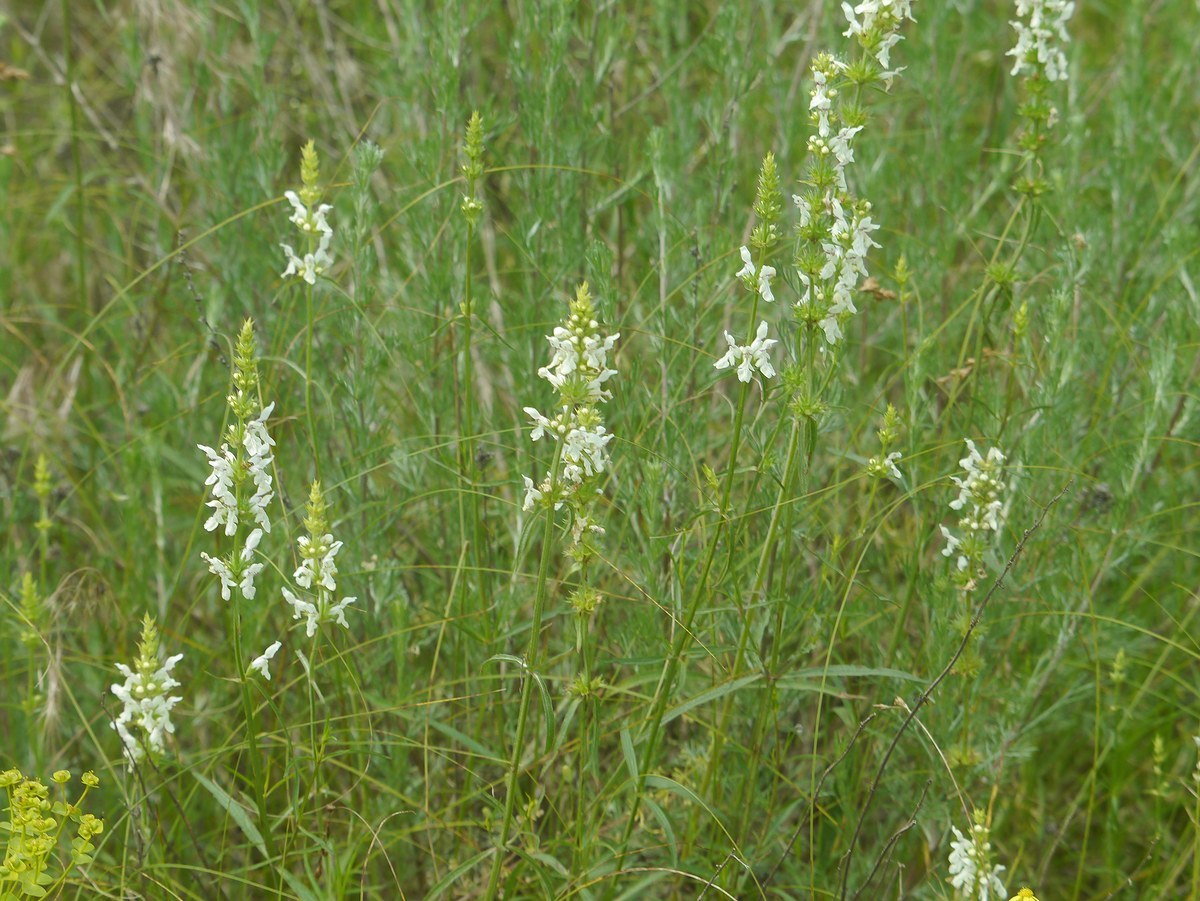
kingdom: Plantae
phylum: Tracheophyta
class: Magnoliopsida
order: Lamiales
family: Lamiaceae
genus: Stachys
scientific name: Stachys recta
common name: Perennial yellow-woundwort
